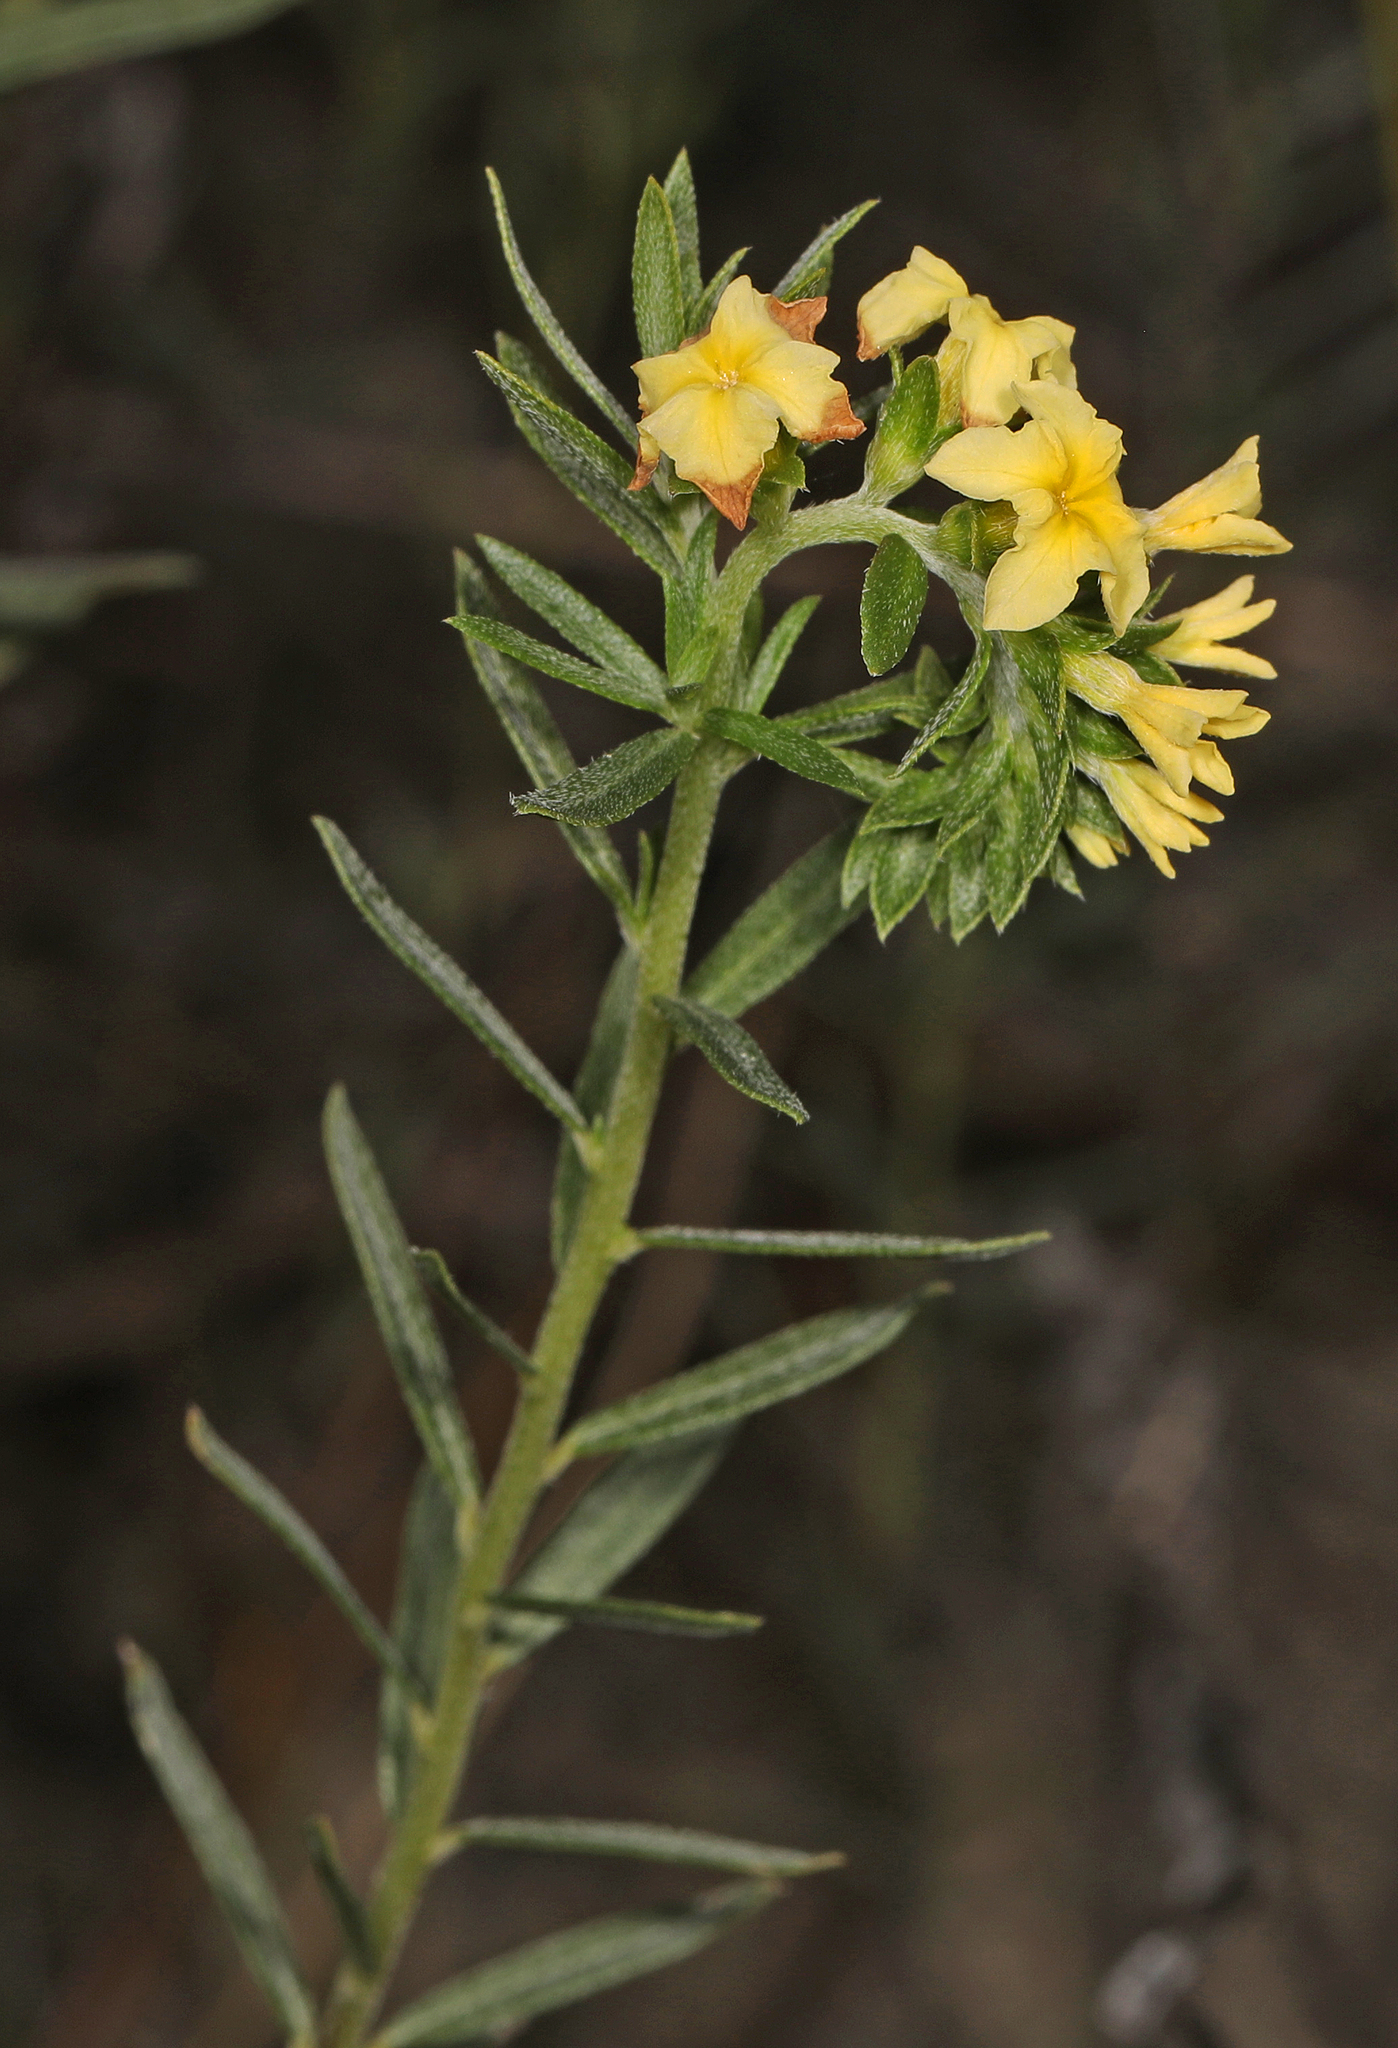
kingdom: Plantae
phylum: Tracheophyta
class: Magnoliopsida
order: Boraginales
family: Heliotropiaceae
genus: Euploca
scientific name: Euploca polyphylla
